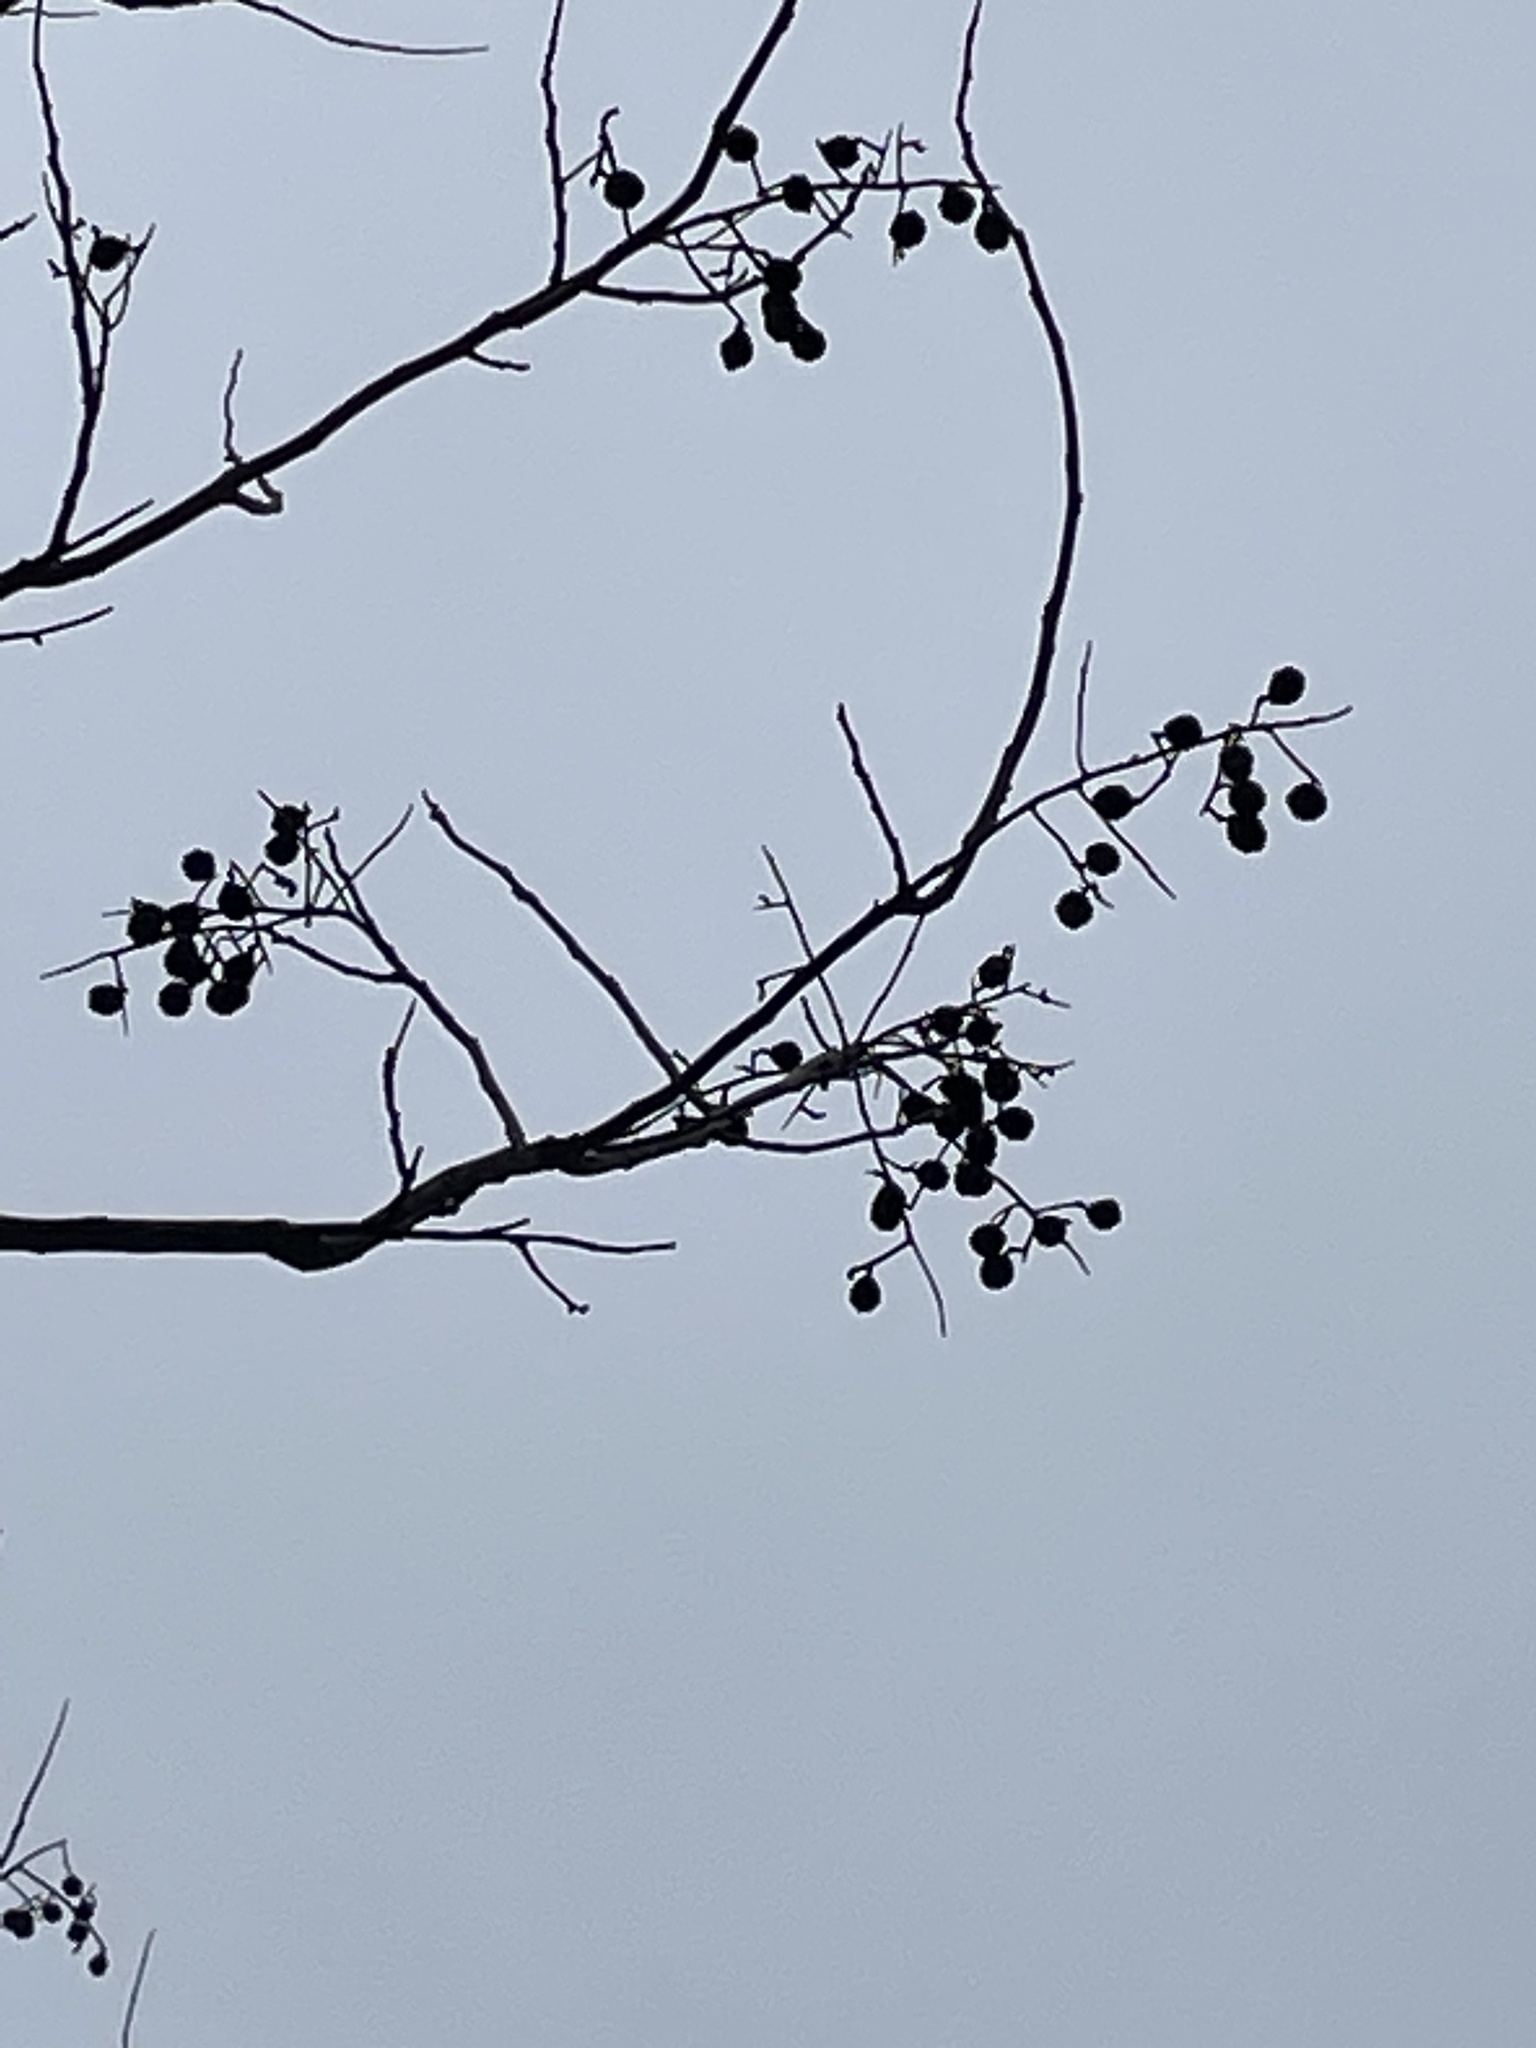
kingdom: Plantae
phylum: Tracheophyta
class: Magnoliopsida
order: Sapindales
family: Sapindaceae
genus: Sapindus
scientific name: Sapindus drummondii
